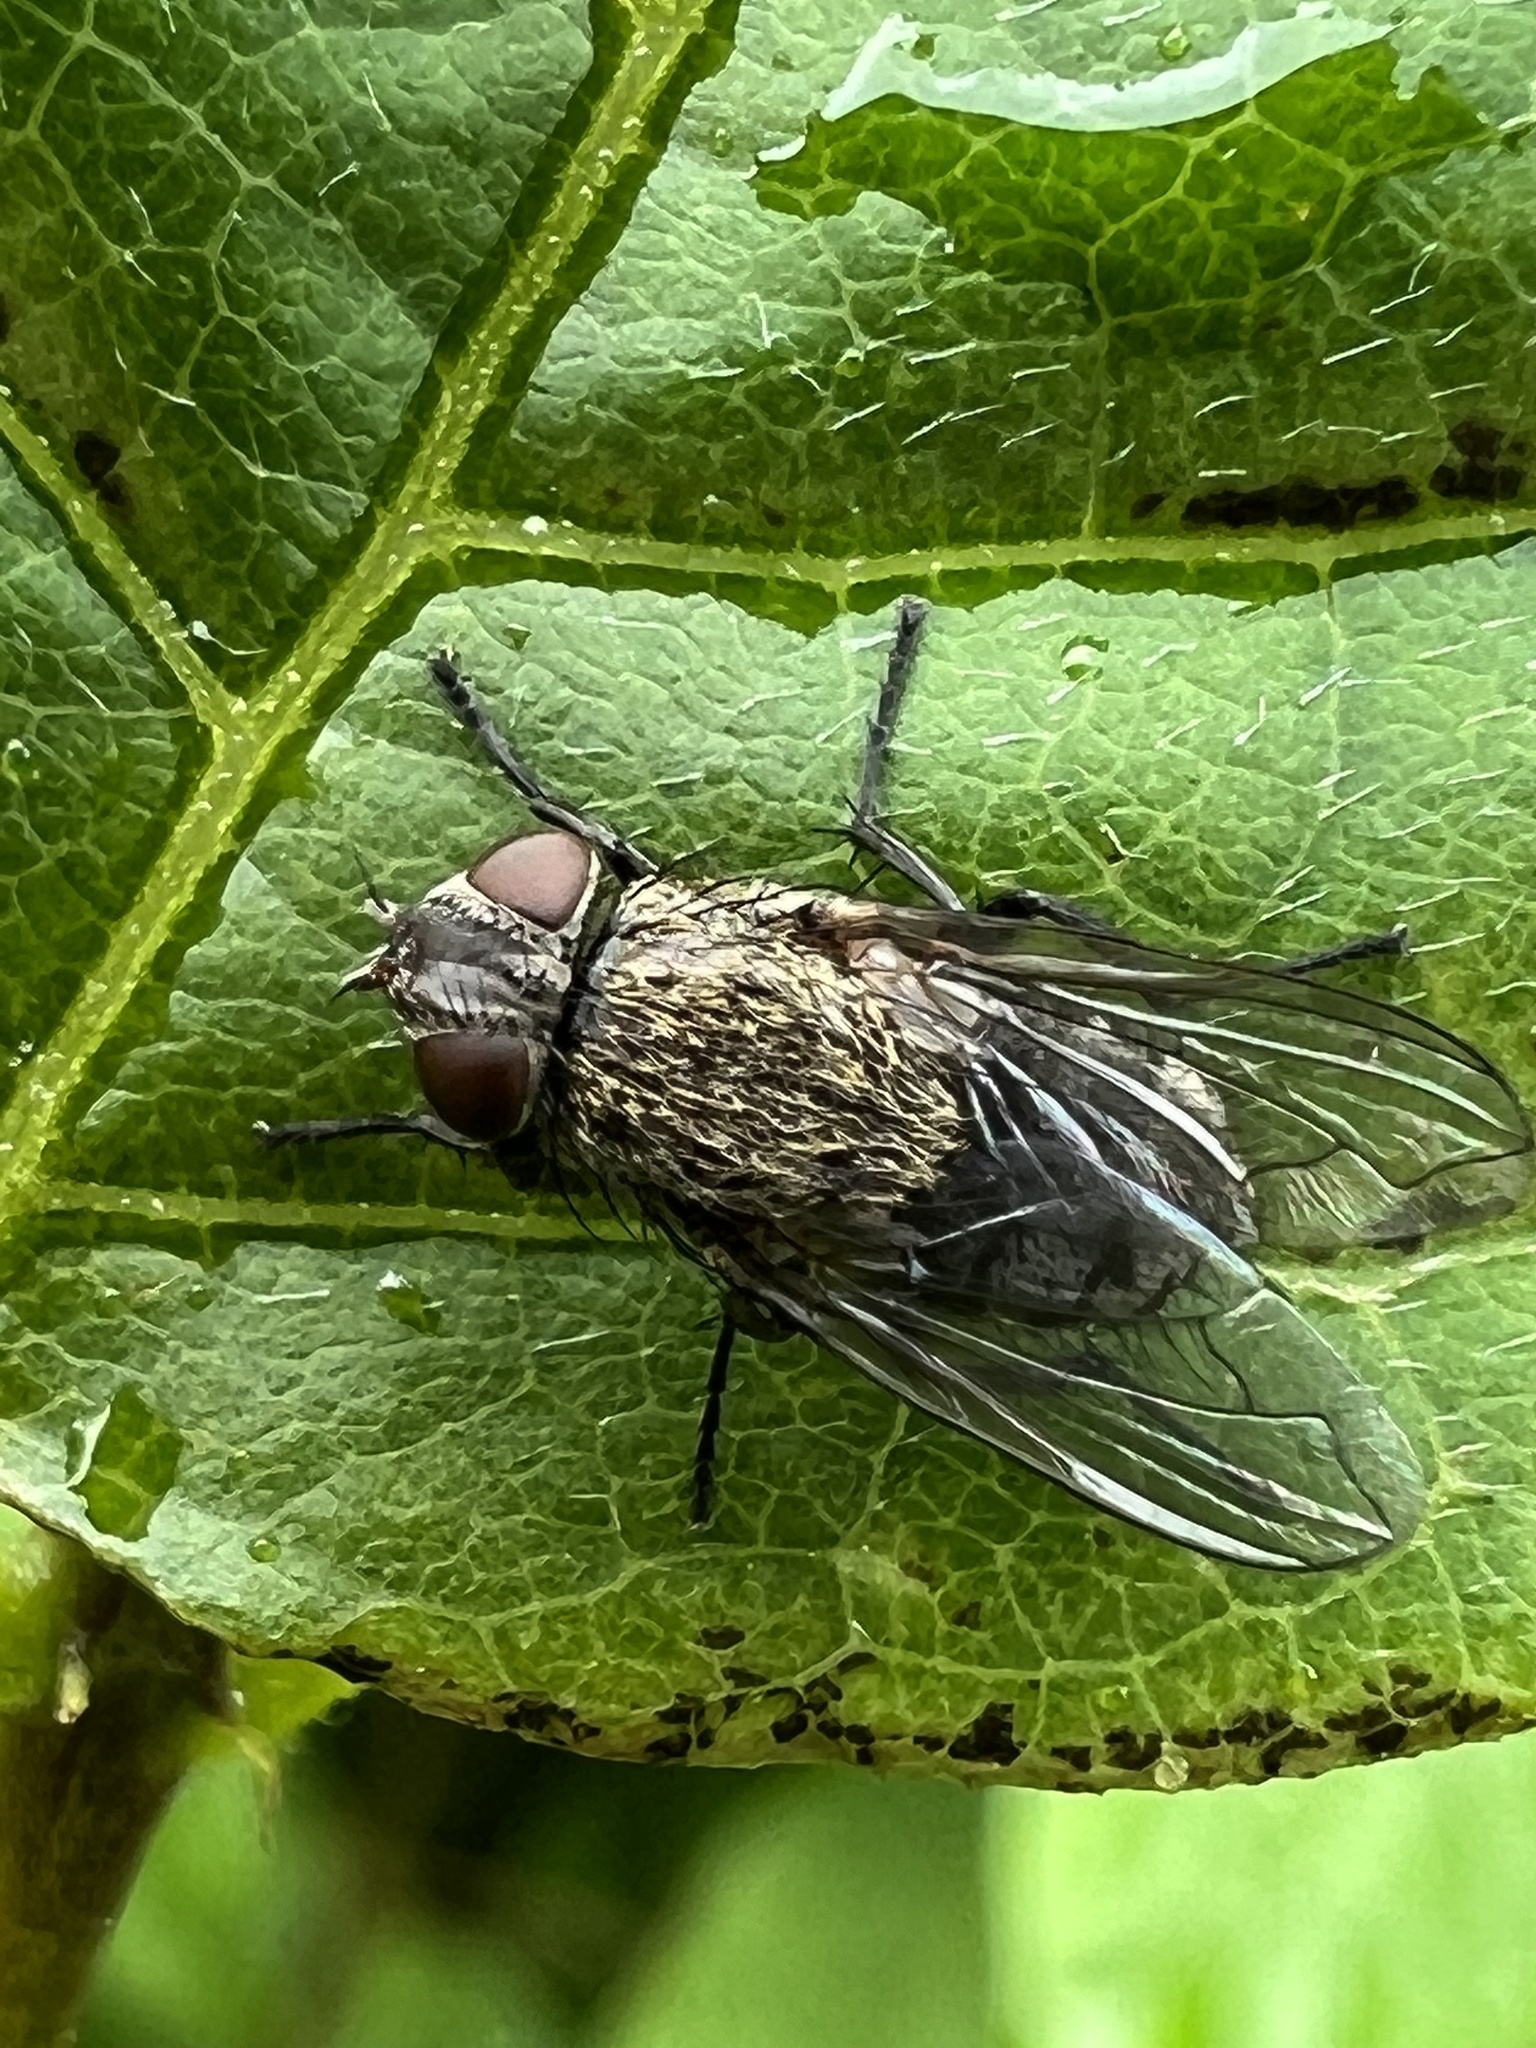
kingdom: Animalia
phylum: Arthropoda
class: Insecta
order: Diptera
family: Polleniidae
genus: Pollenia
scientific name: Pollenia
